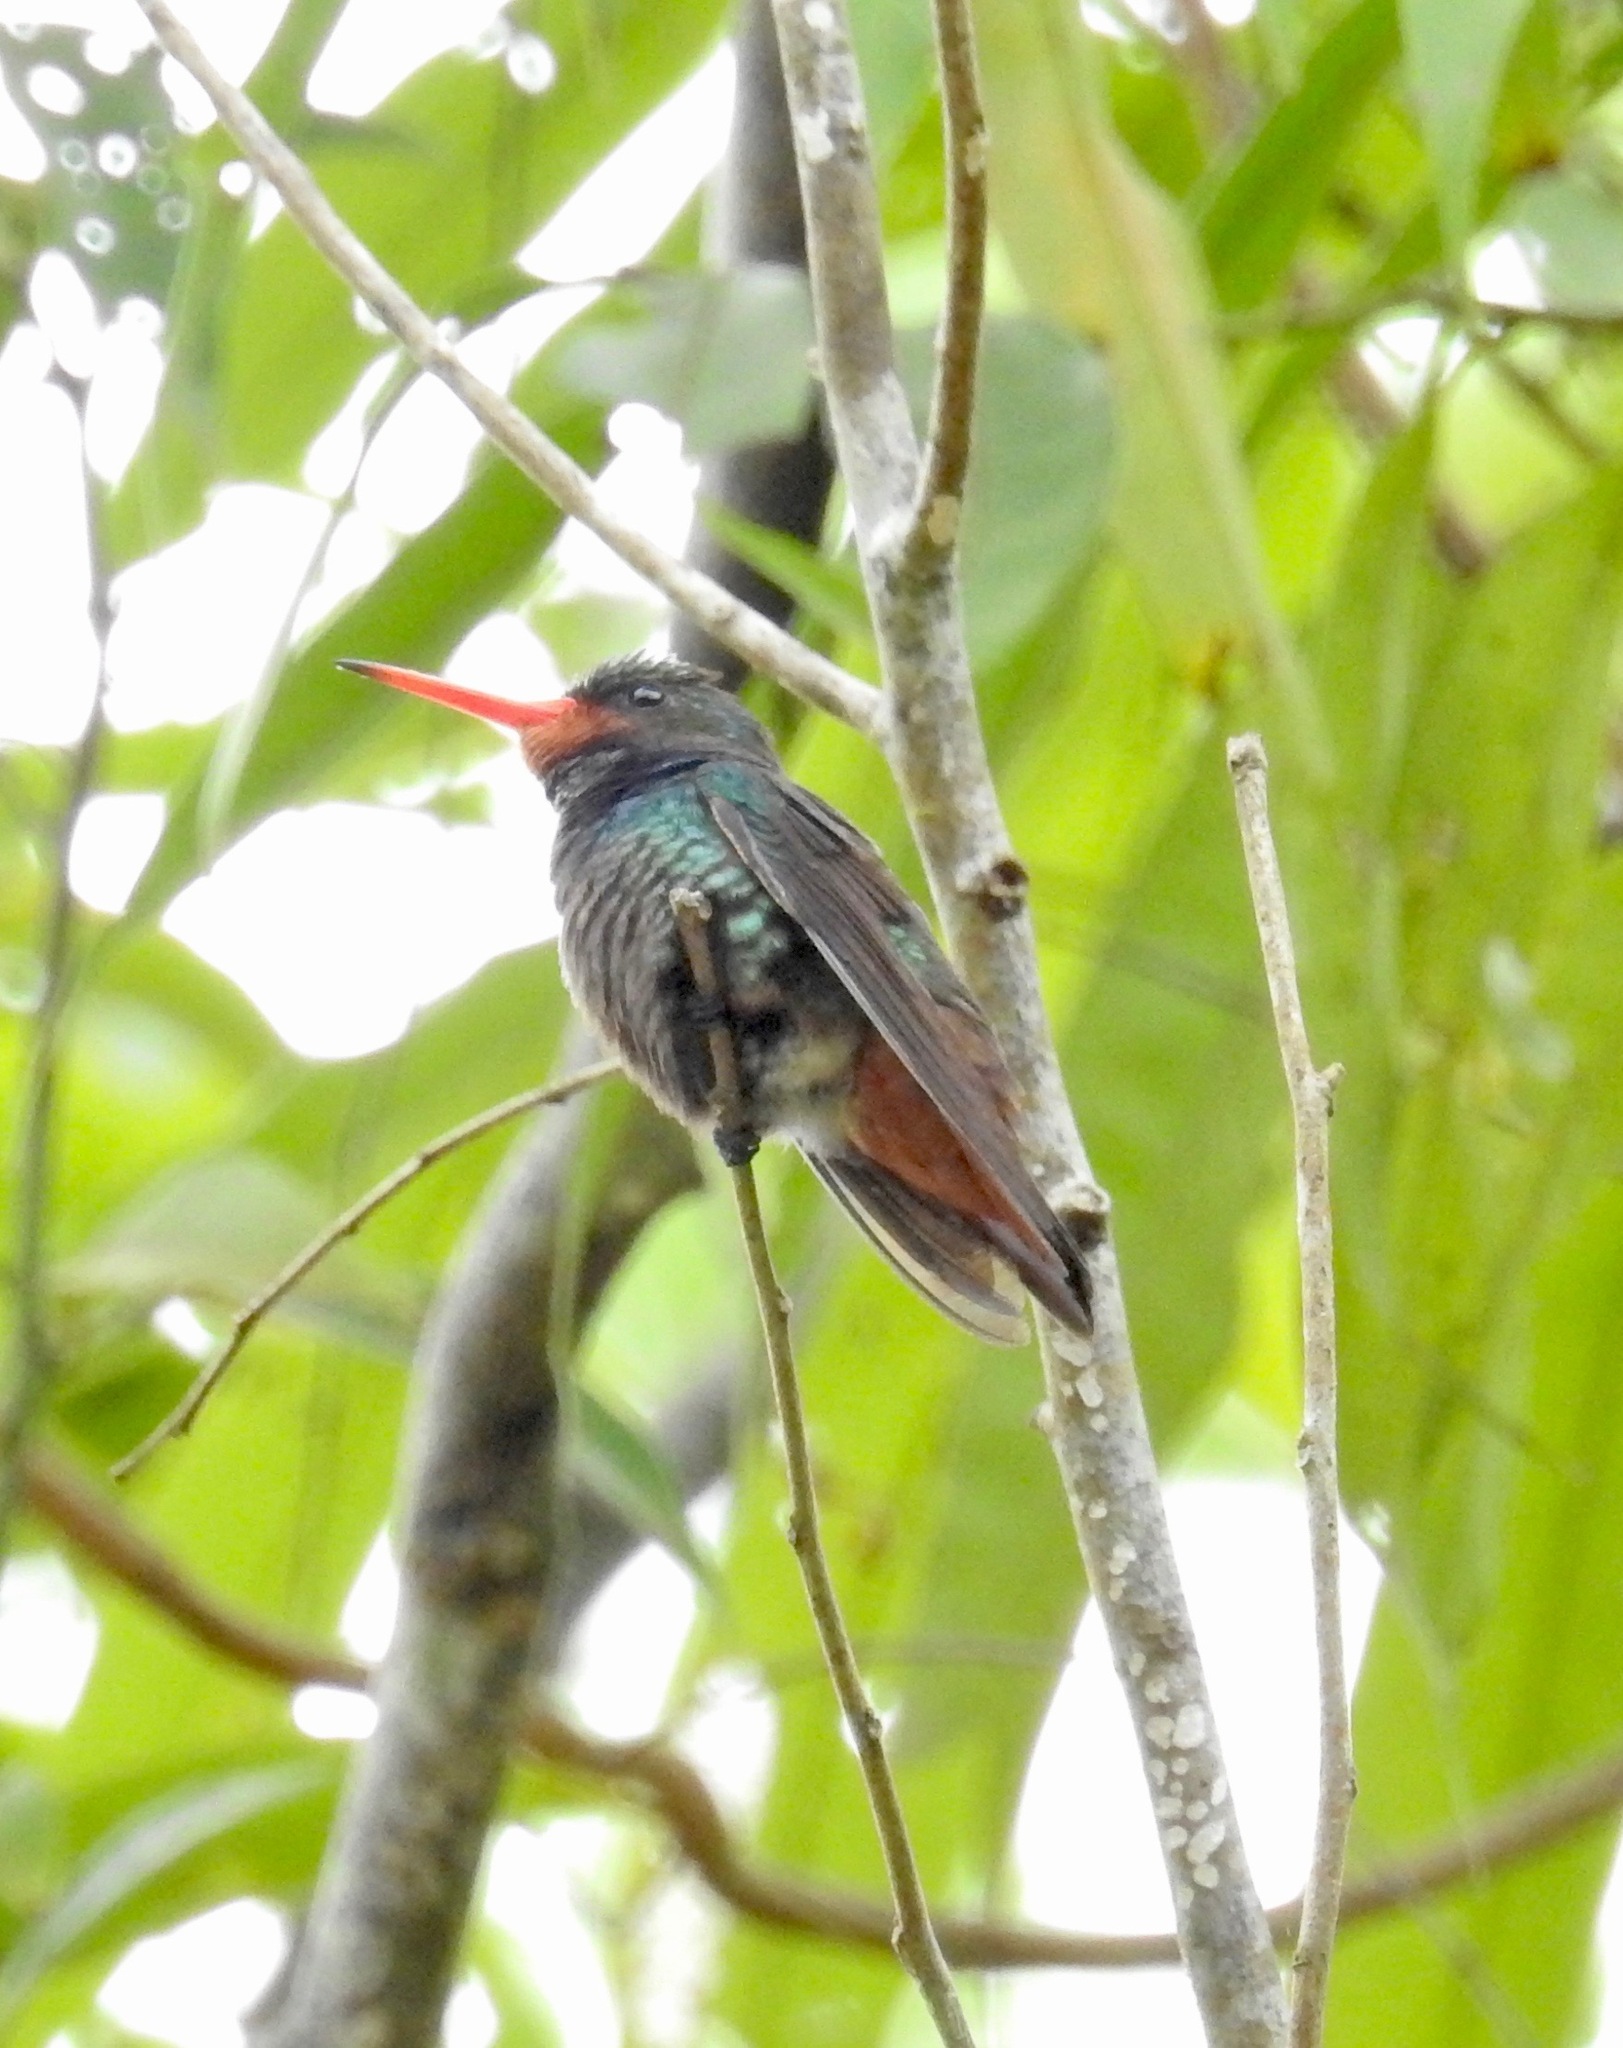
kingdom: Animalia
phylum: Chordata
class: Aves
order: Apodiformes
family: Trochilidae
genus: Hylocharis
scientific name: Hylocharis sapphirina
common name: Rufous-throated sapphire
